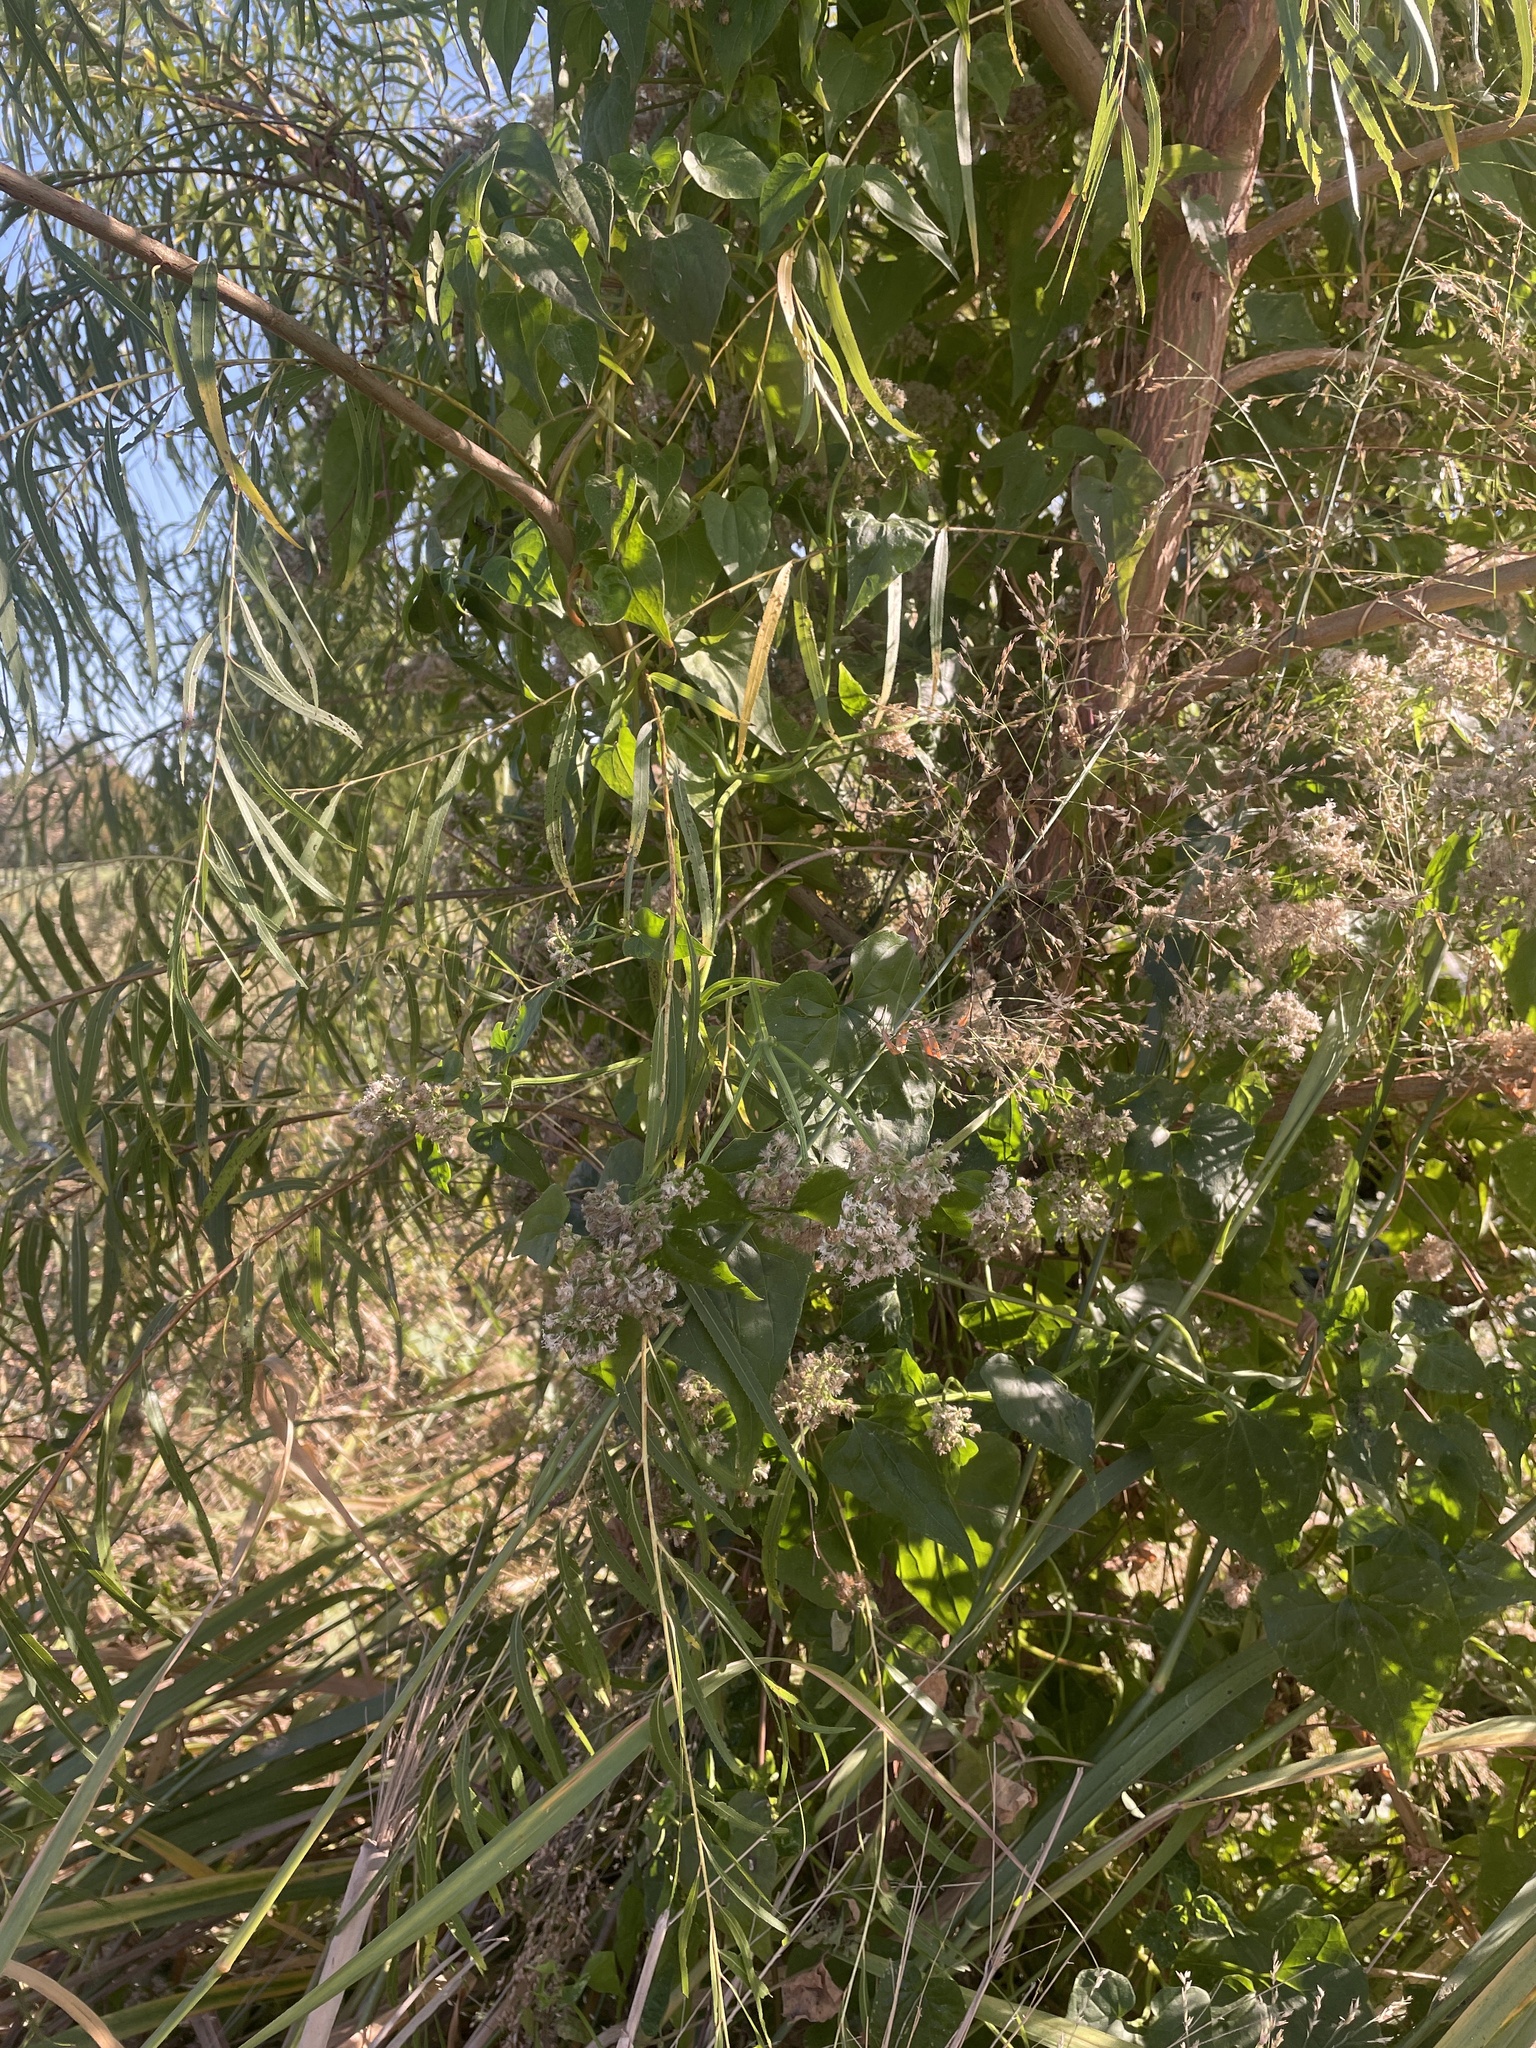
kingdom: Plantae
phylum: Tracheophyta
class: Magnoliopsida
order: Asterales
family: Asteraceae
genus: Mikania
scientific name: Mikania scandens
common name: Climbing hempvine
